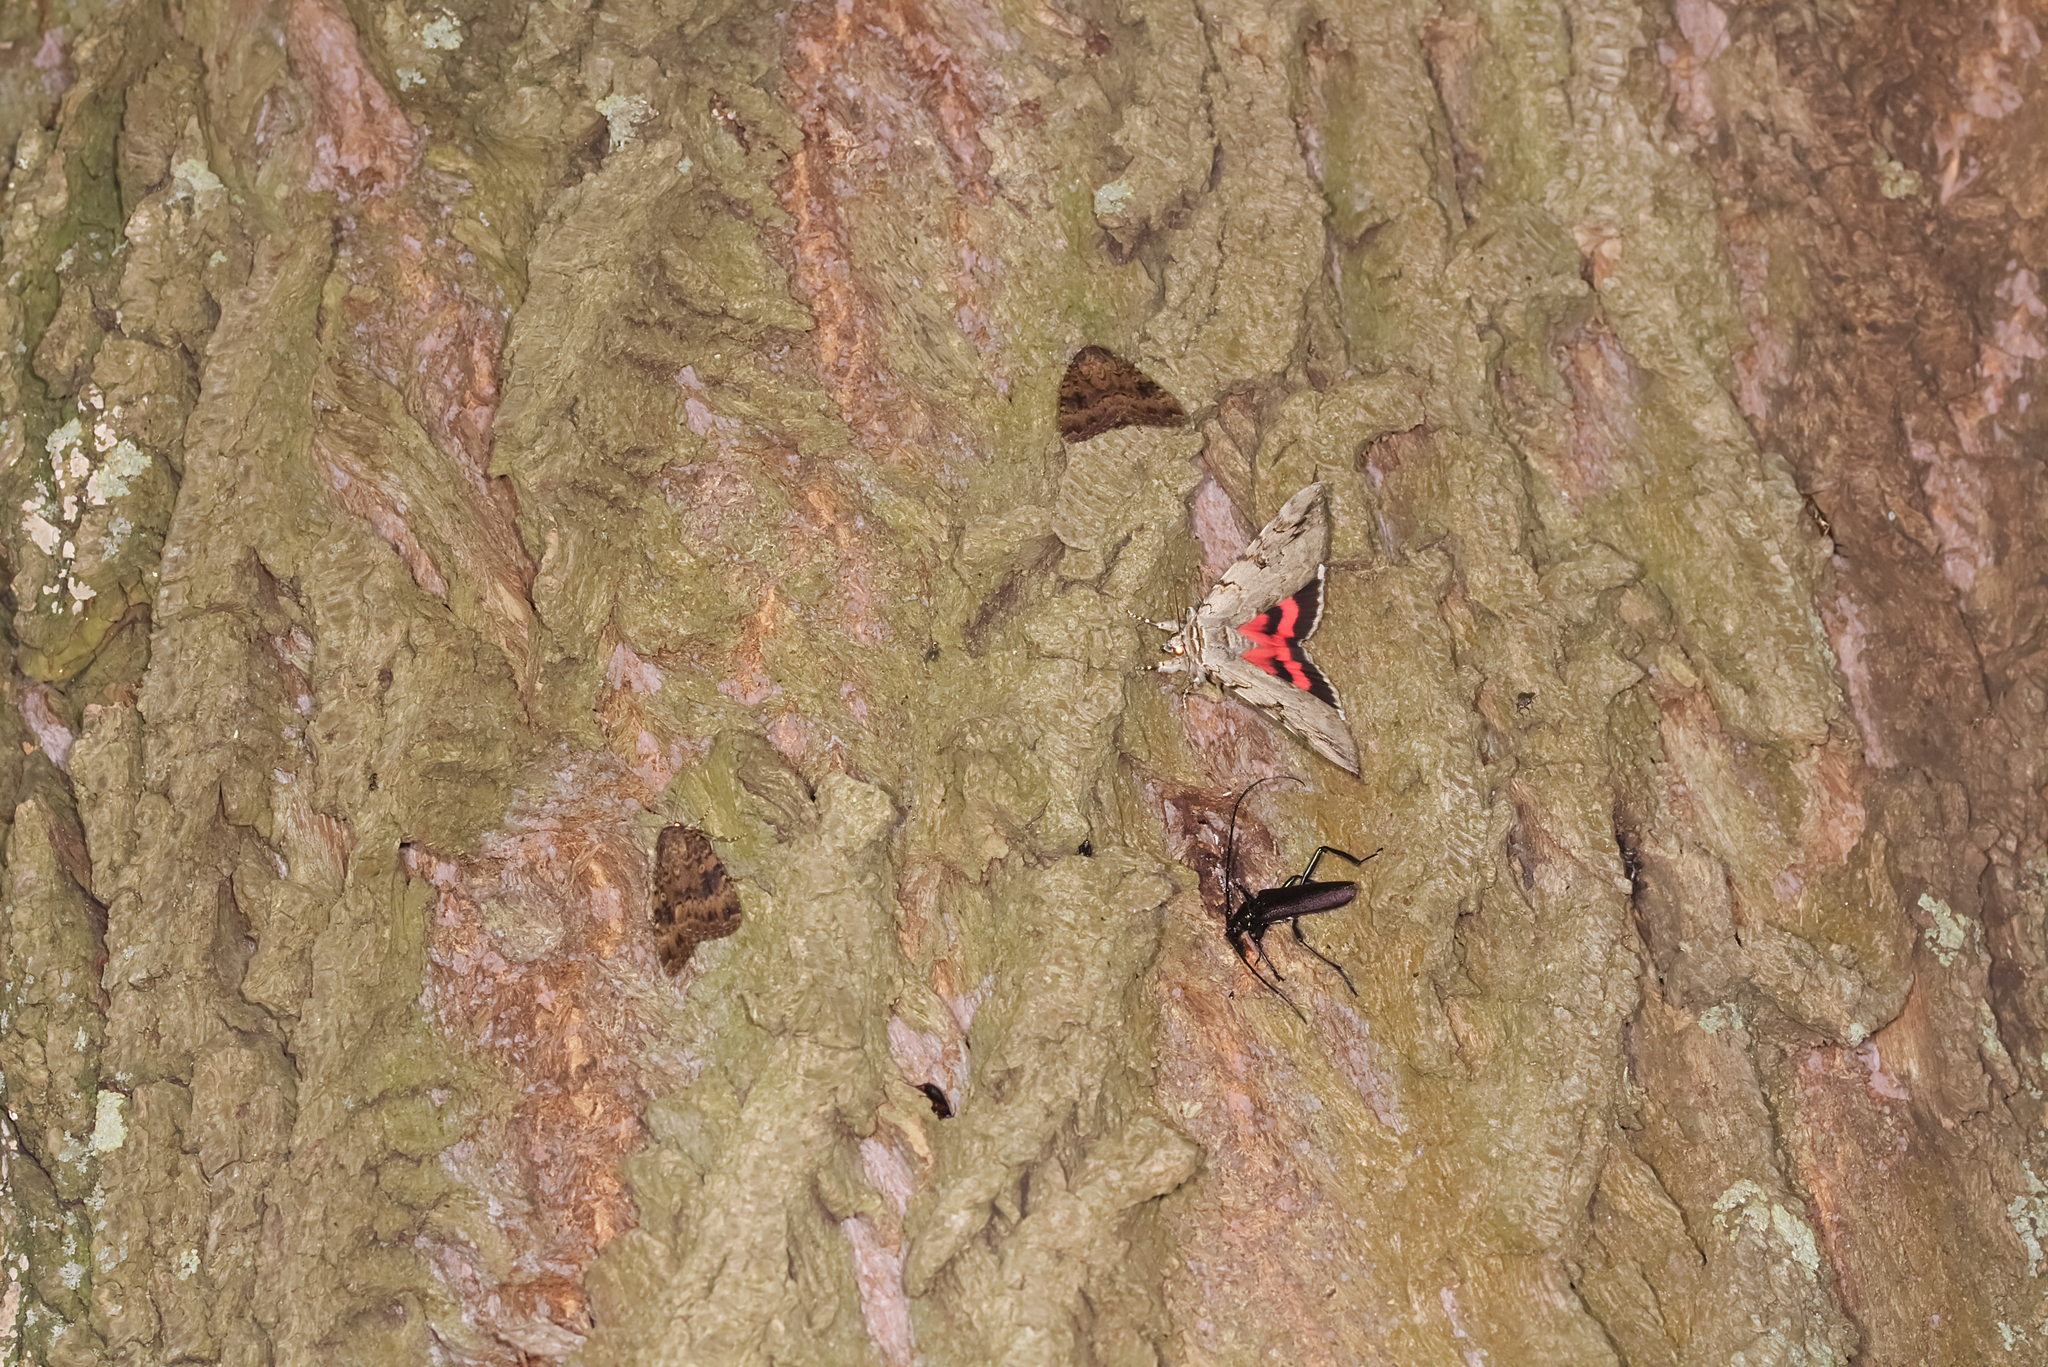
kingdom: Animalia
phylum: Arthropoda
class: Insecta
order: Coleoptera
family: Cerambycidae
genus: Aromia
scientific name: Aromia moschata
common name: Musk beetle
